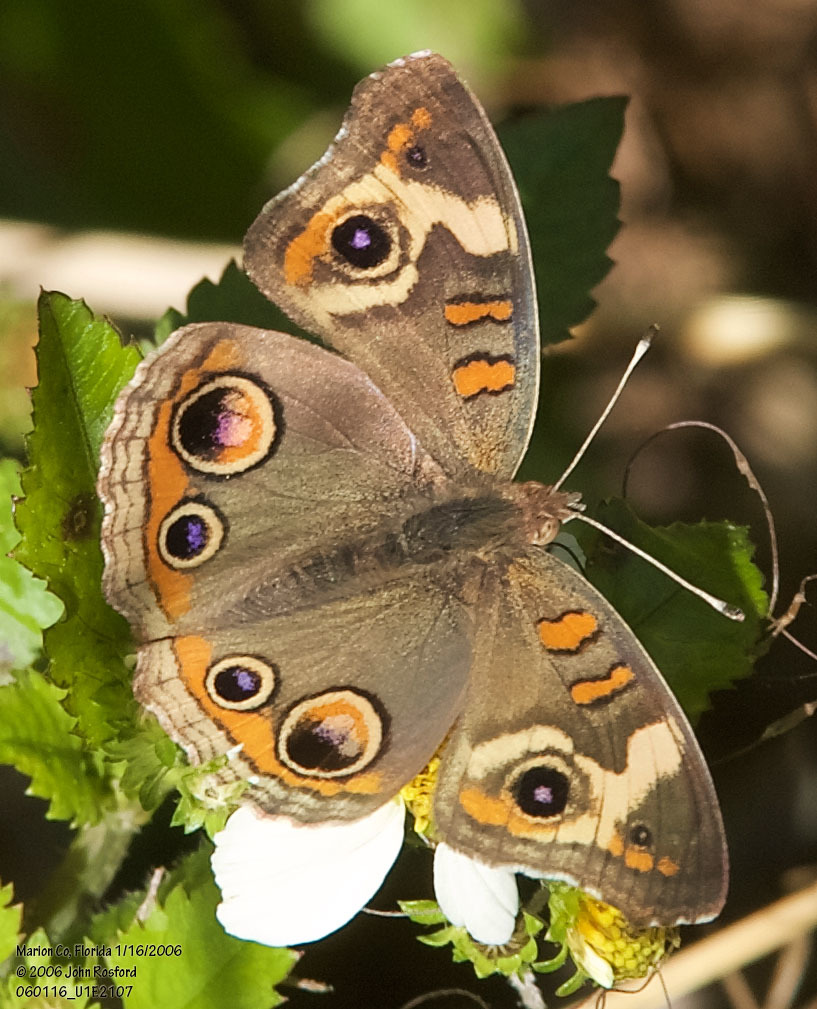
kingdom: Animalia
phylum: Arthropoda
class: Insecta
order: Lepidoptera
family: Nymphalidae
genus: Junonia
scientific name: Junonia coenia
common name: Common buckeye
